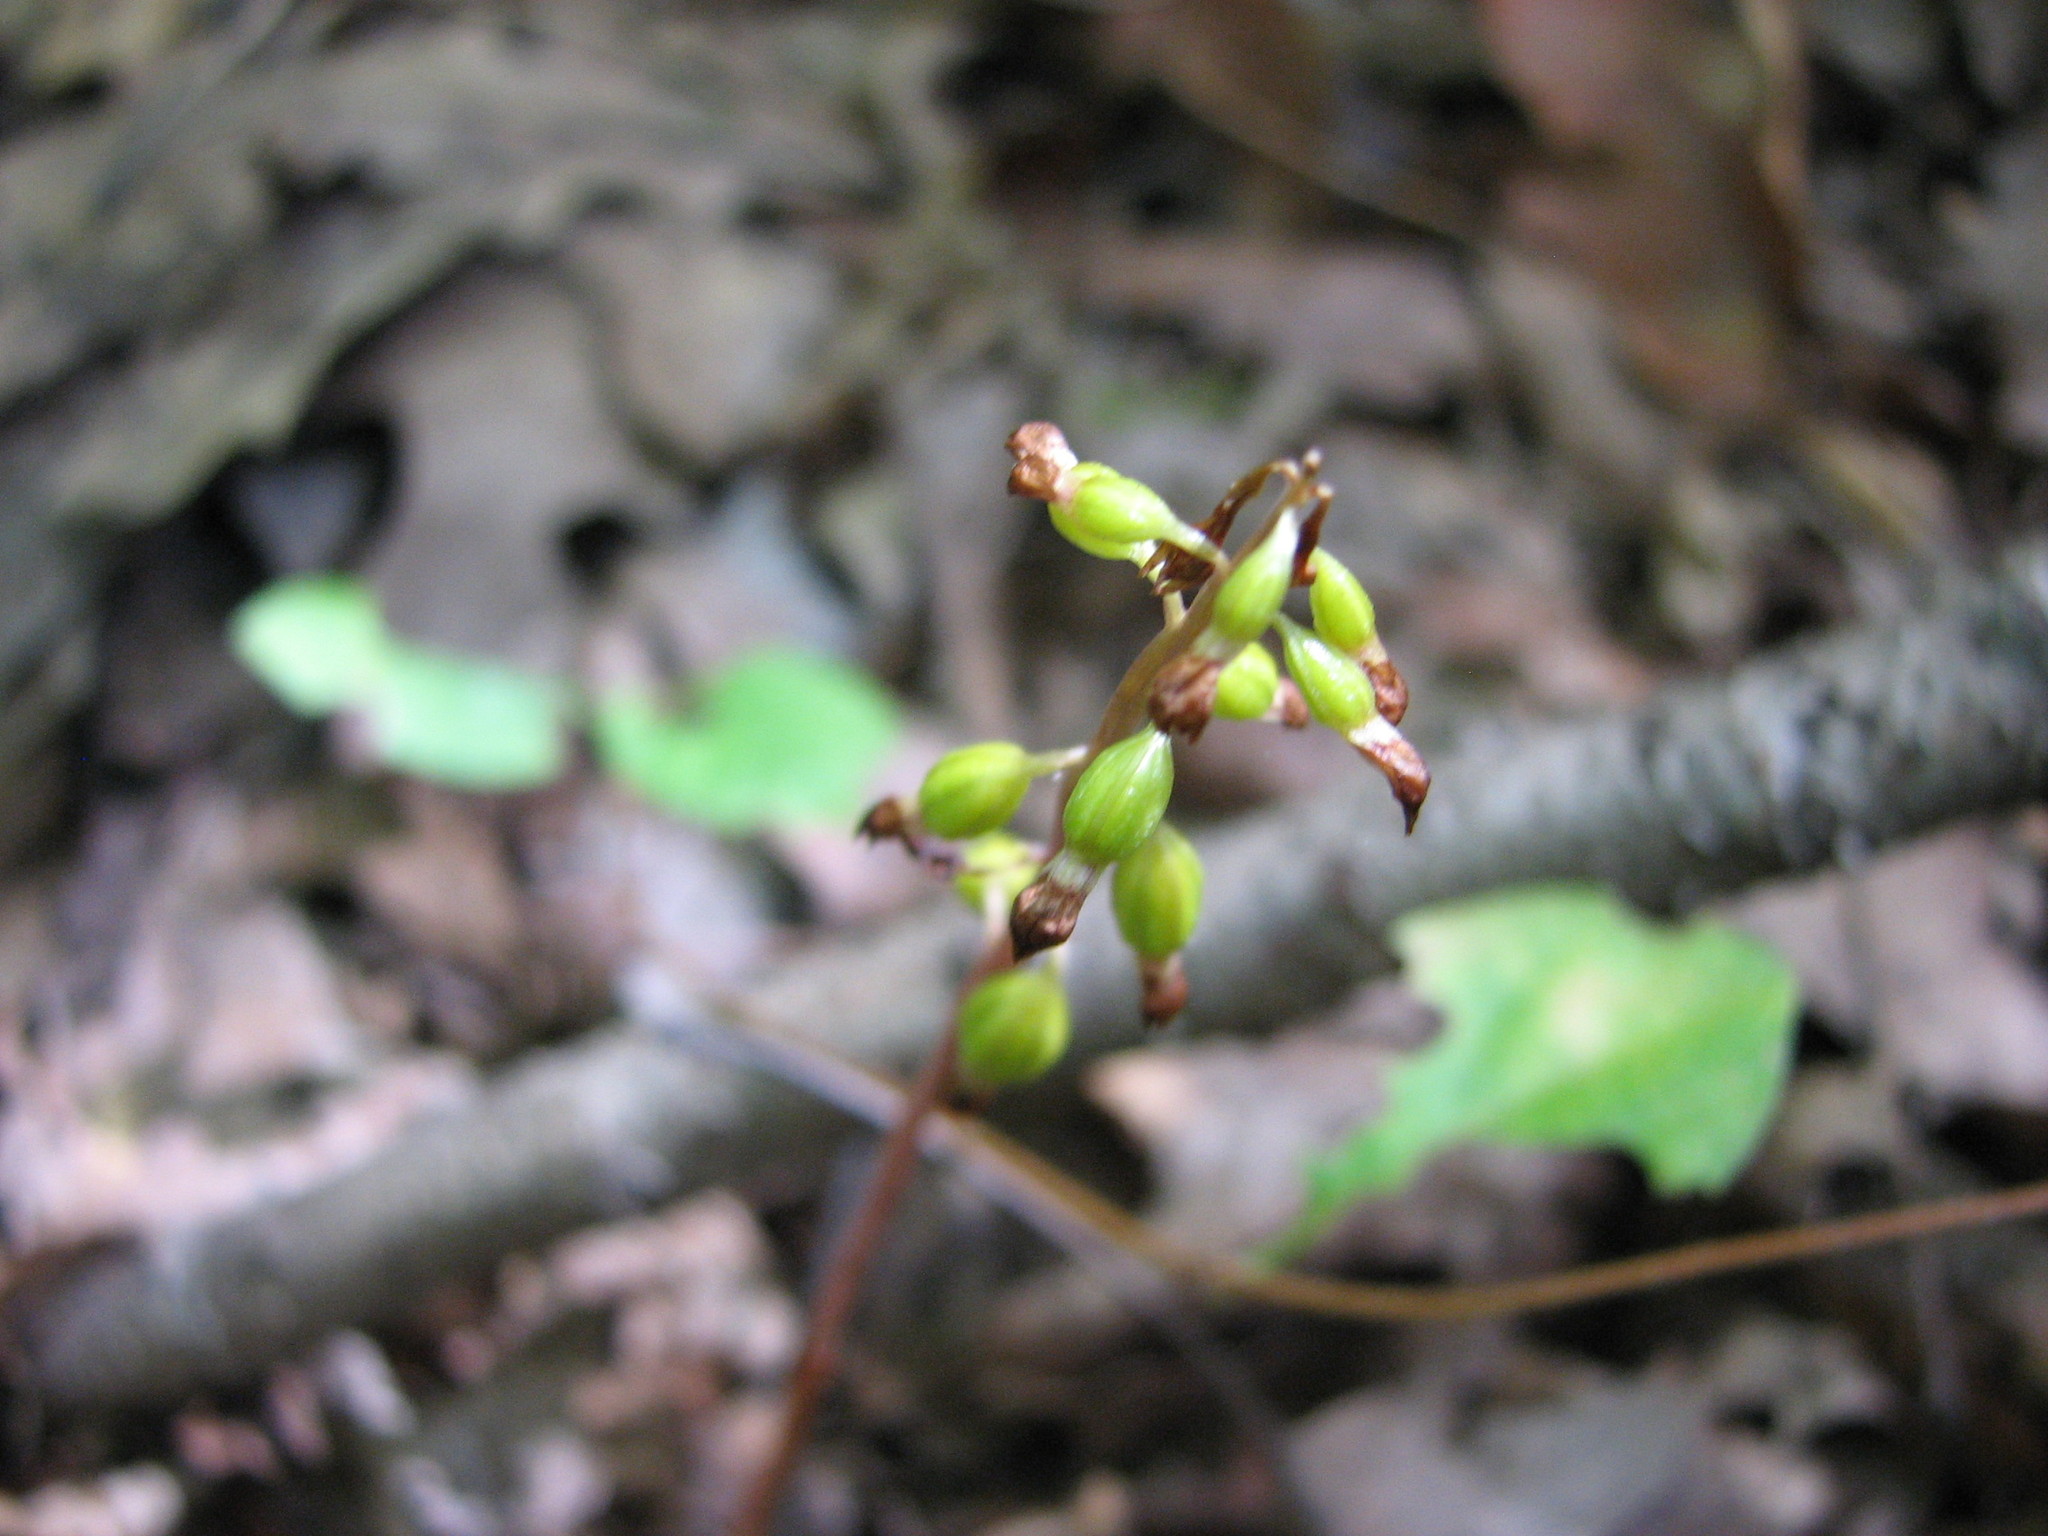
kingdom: Plantae
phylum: Tracheophyta
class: Liliopsida
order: Asparagales
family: Orchidaceae
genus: Corallorhiza
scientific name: Corallorhiza odontorhiza
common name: Autumn coralroot
